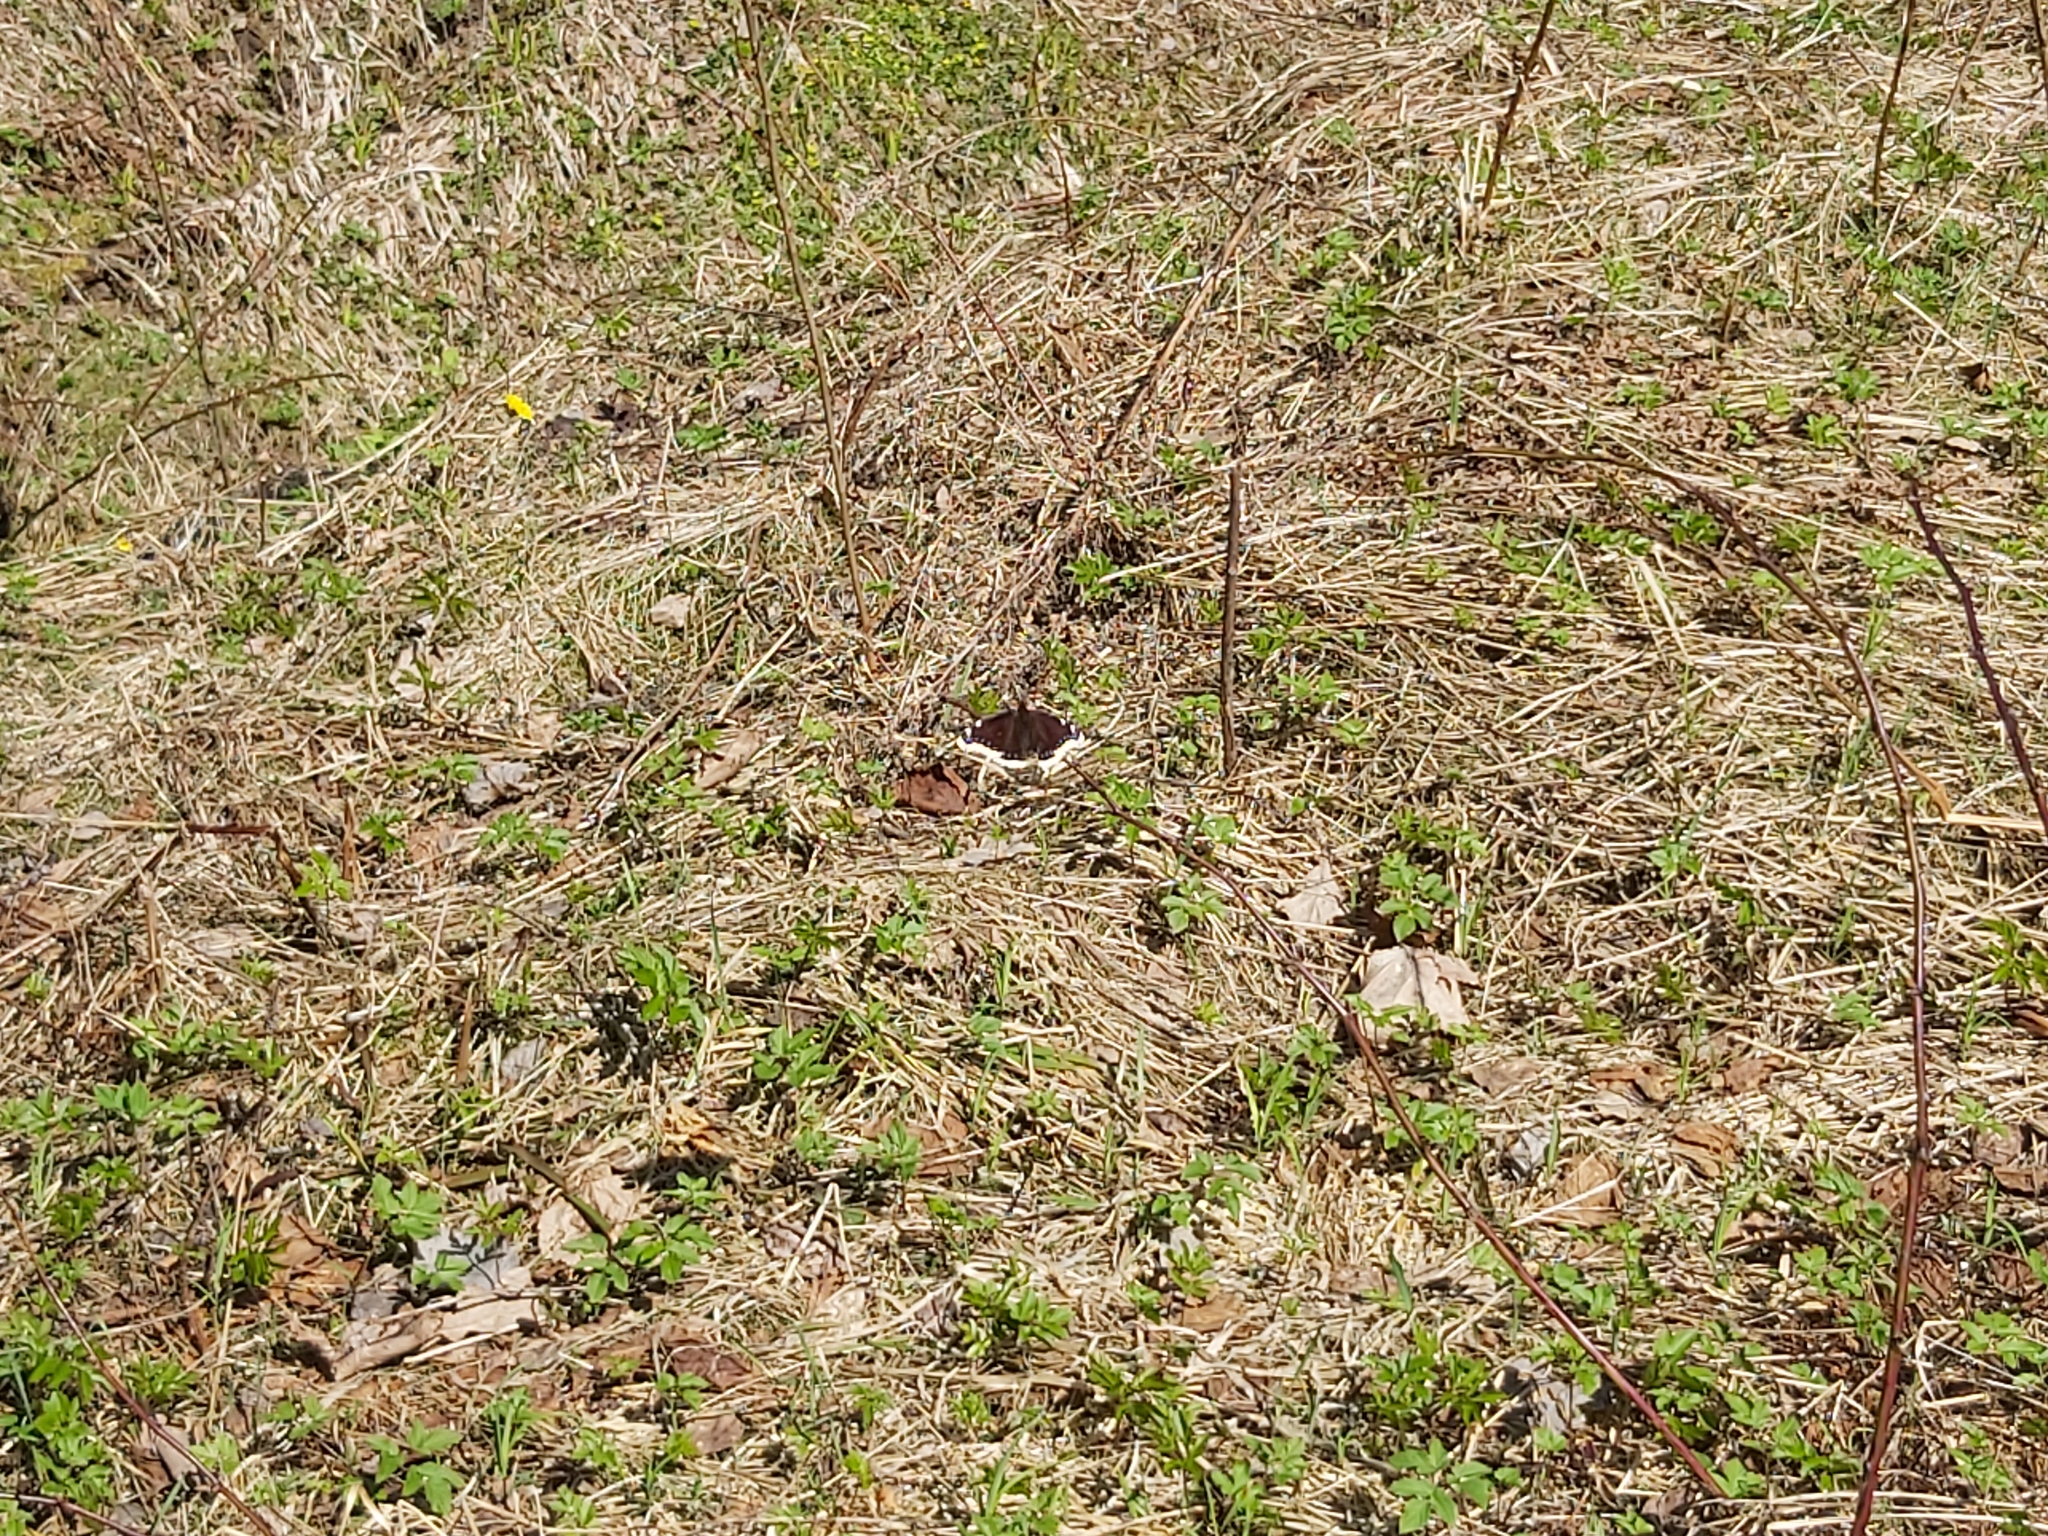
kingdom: Animalia
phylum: Arthropoda
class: Insecta
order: Lepidoptera
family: Nymphalidae
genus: Nymphalis
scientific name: Nymphalis antiopa
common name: Camberwell beauty
